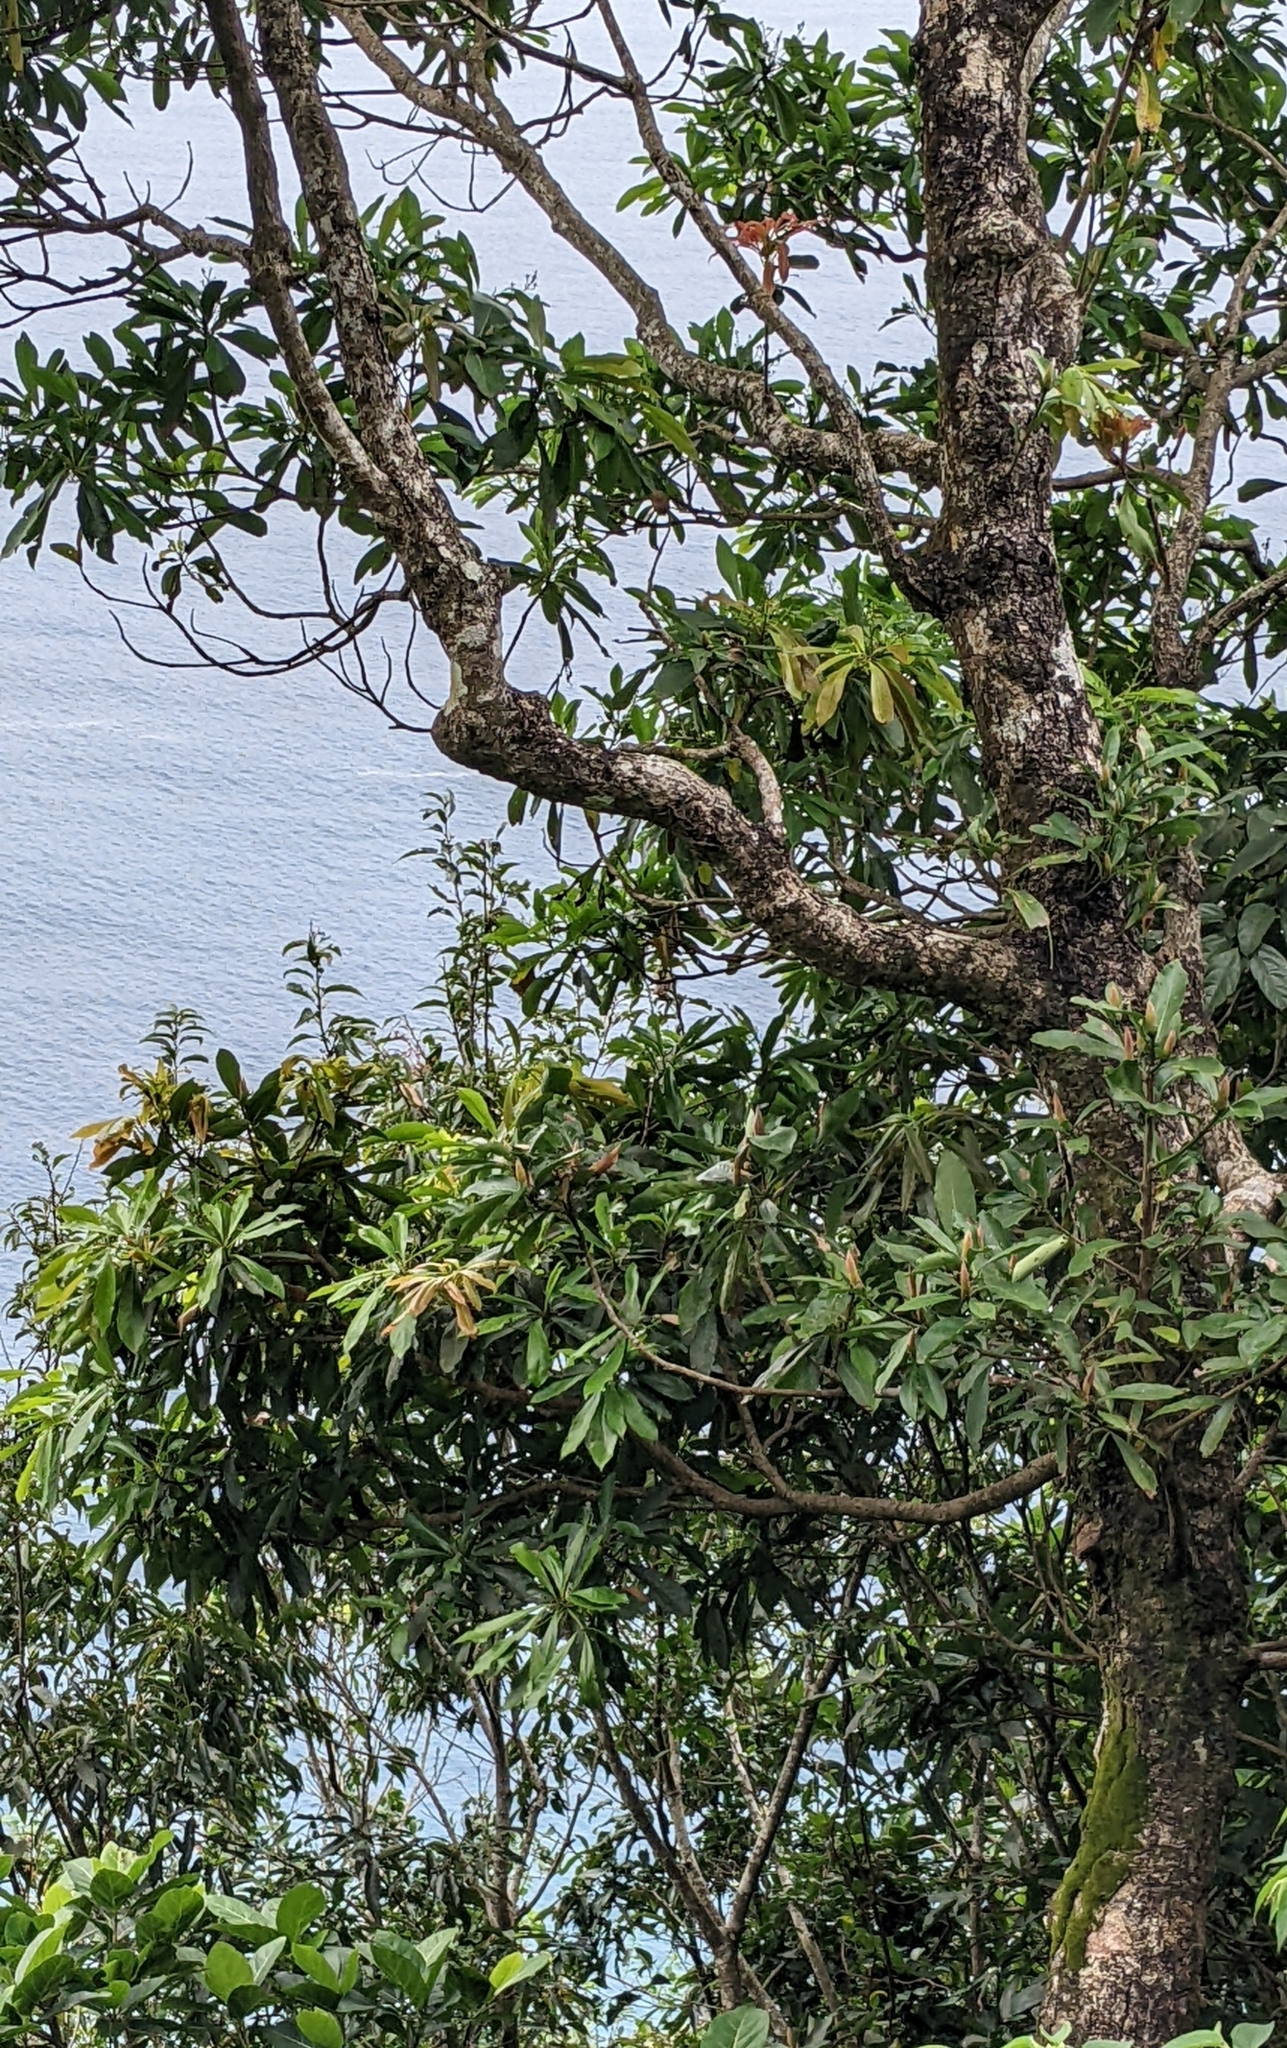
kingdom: Plantae
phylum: Tracheophyta
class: Magnoliopsida
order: Laurales
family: Lauraceae
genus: Machilus
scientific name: Machilus japonica
